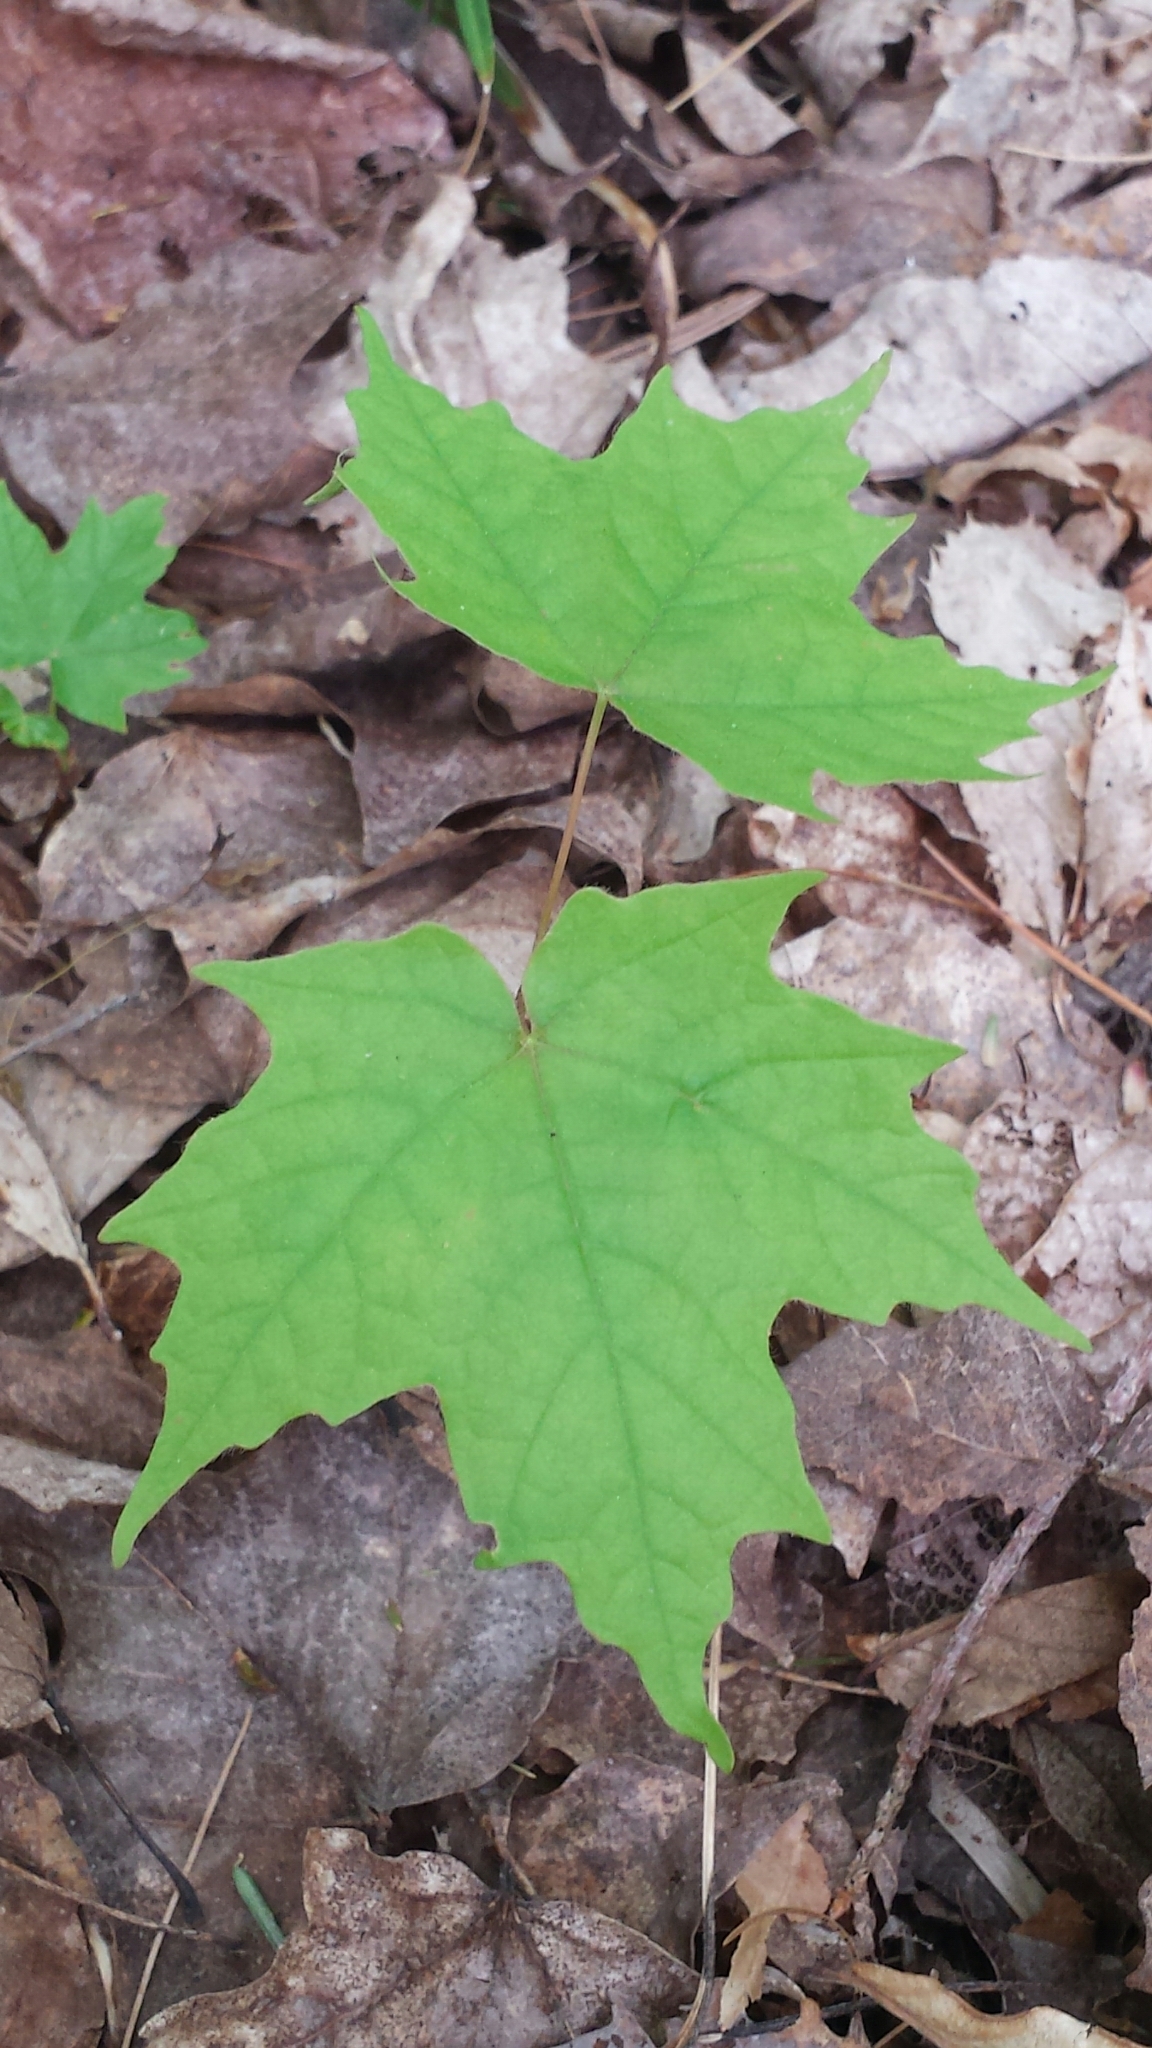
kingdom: Plantae
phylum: Tracheophyta
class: Magnoliopsida
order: Sapindales
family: Sapindaceae
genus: Acer
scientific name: Acer saccharum
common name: Sugar maple
